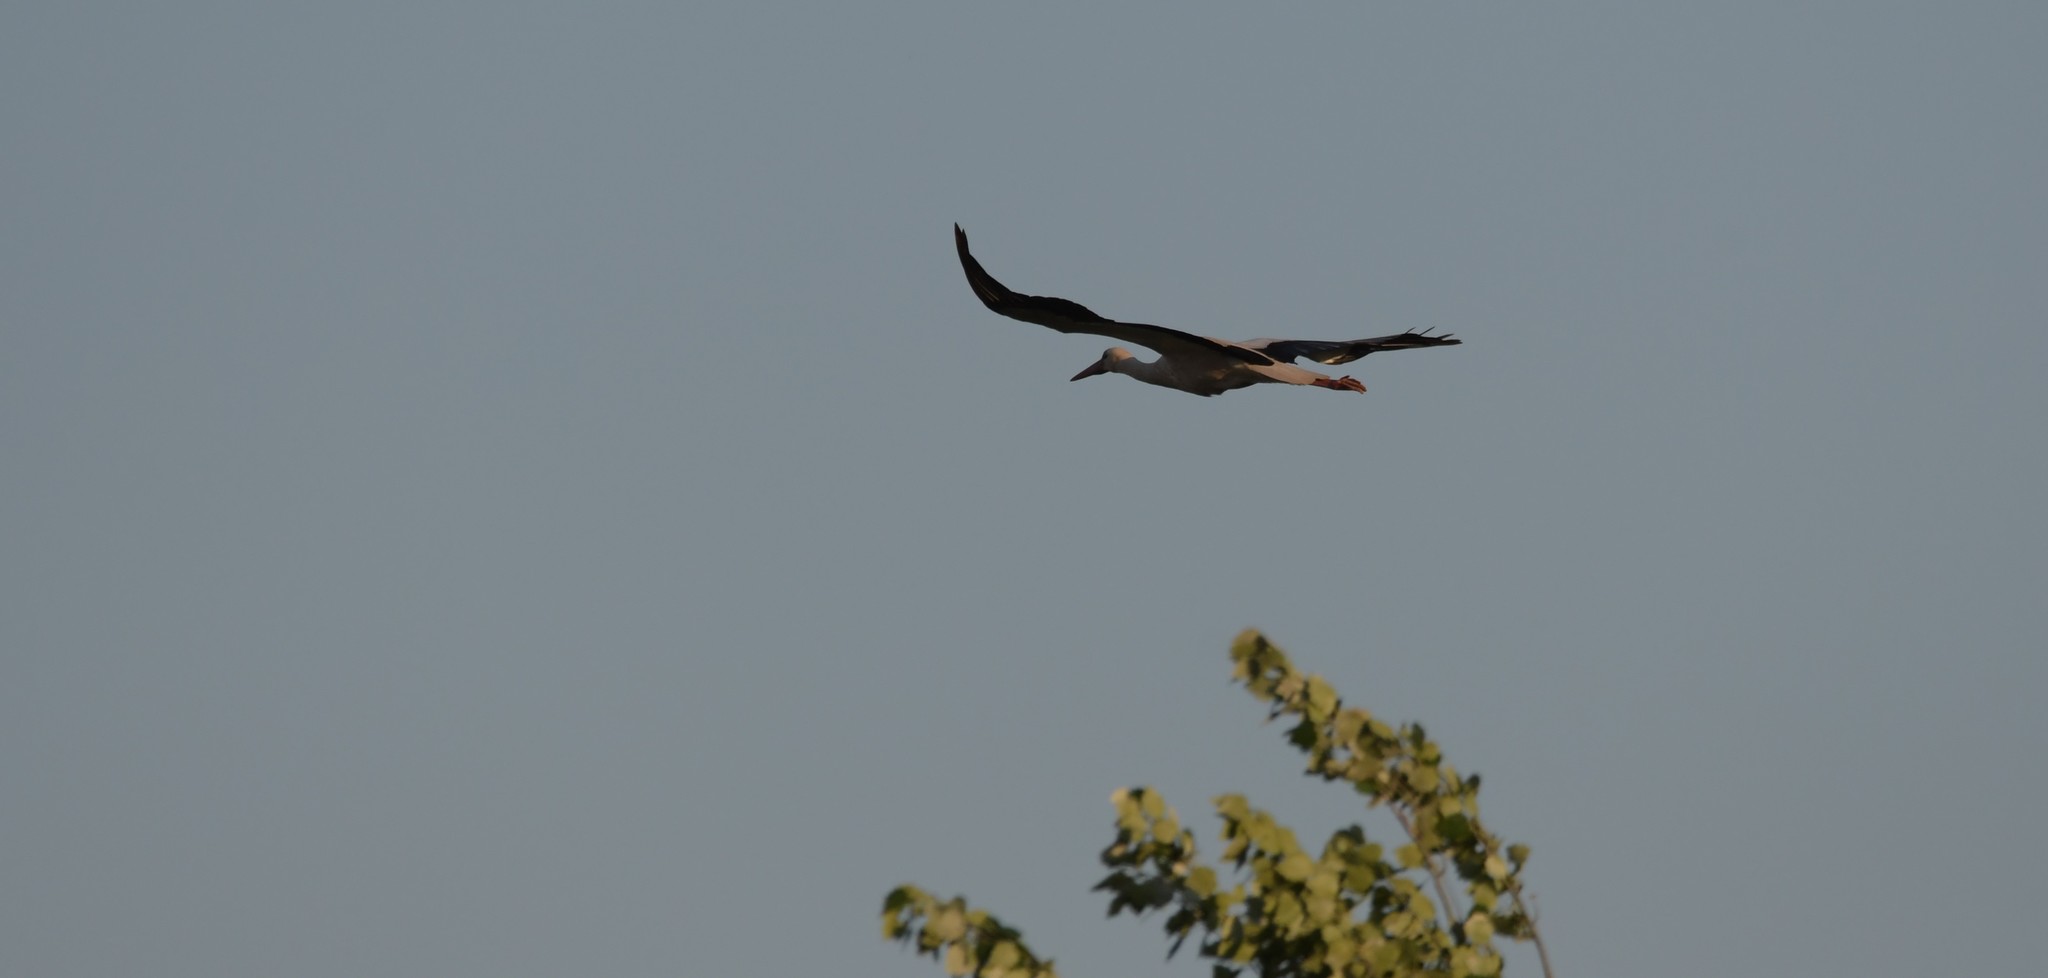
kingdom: Animalia
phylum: Chordata
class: Aves
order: Ciconiiformes
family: Ciconiidae
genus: Ciconia
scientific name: Ciconia ciconia
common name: White stork
